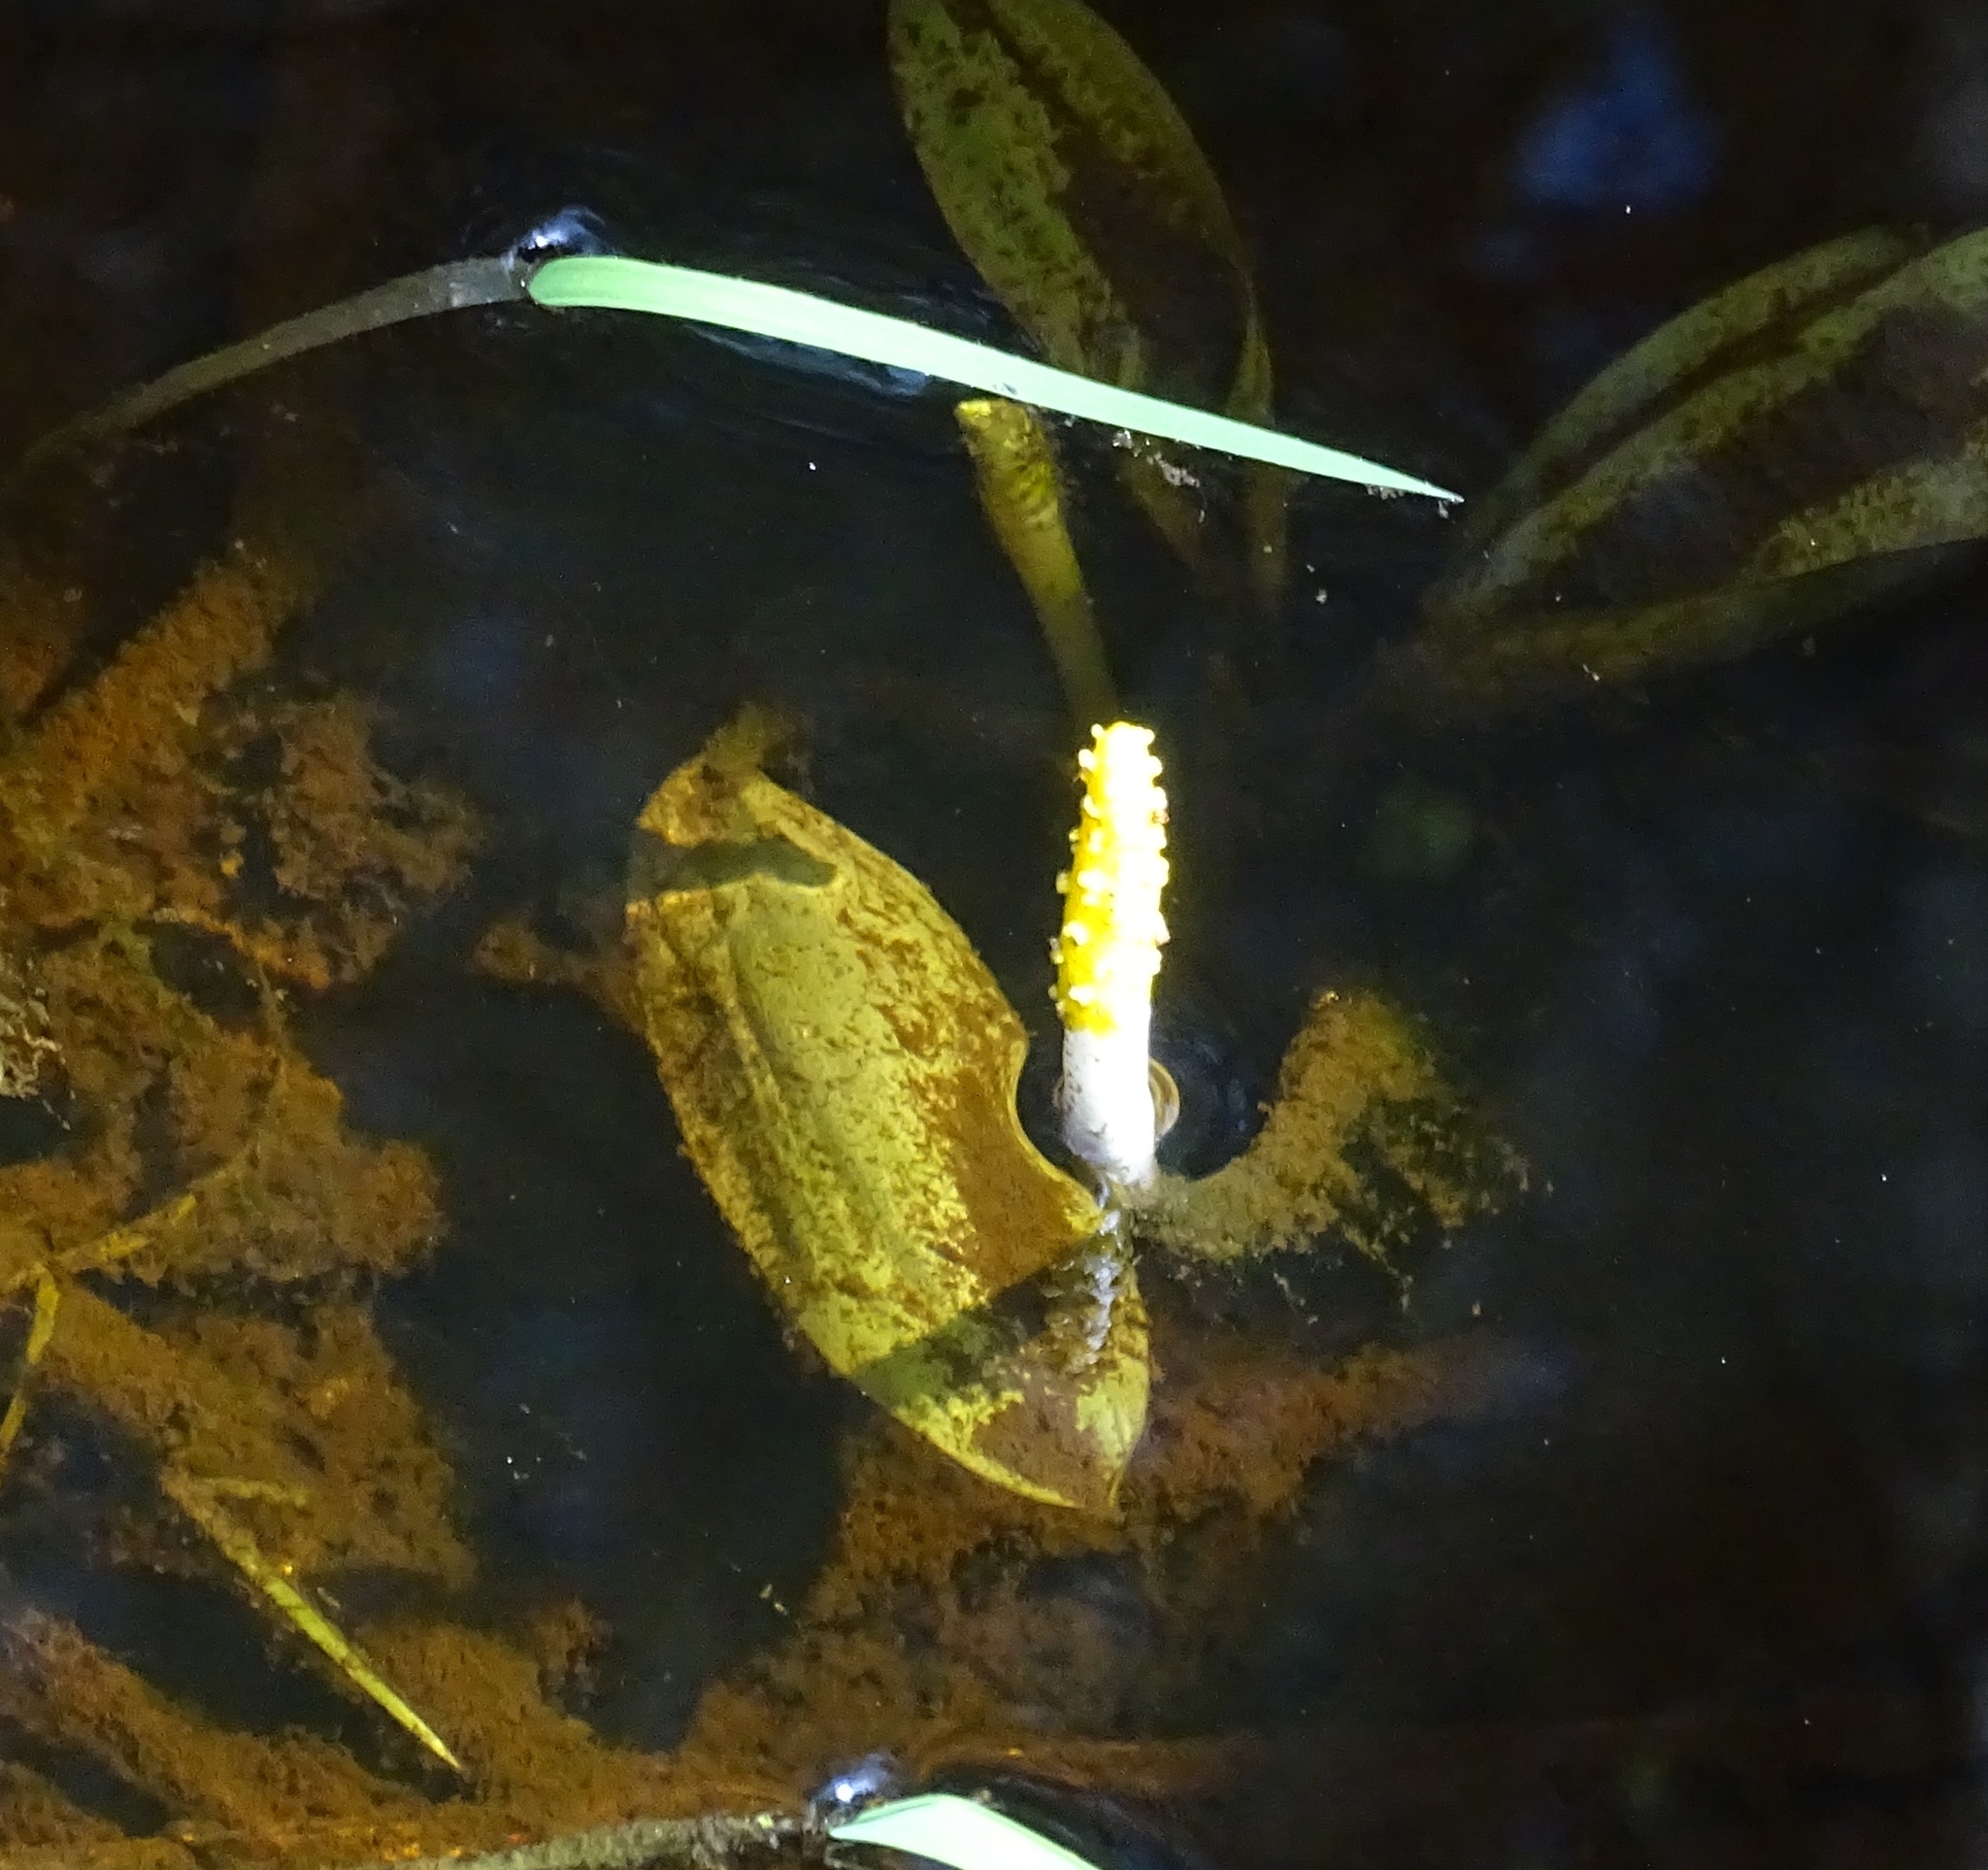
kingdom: Plantae
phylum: Tracheophyta
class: Liliopsida
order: Alismatales
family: Araceae
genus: Orontium
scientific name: Orontium aquaticum
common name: Golden-club
